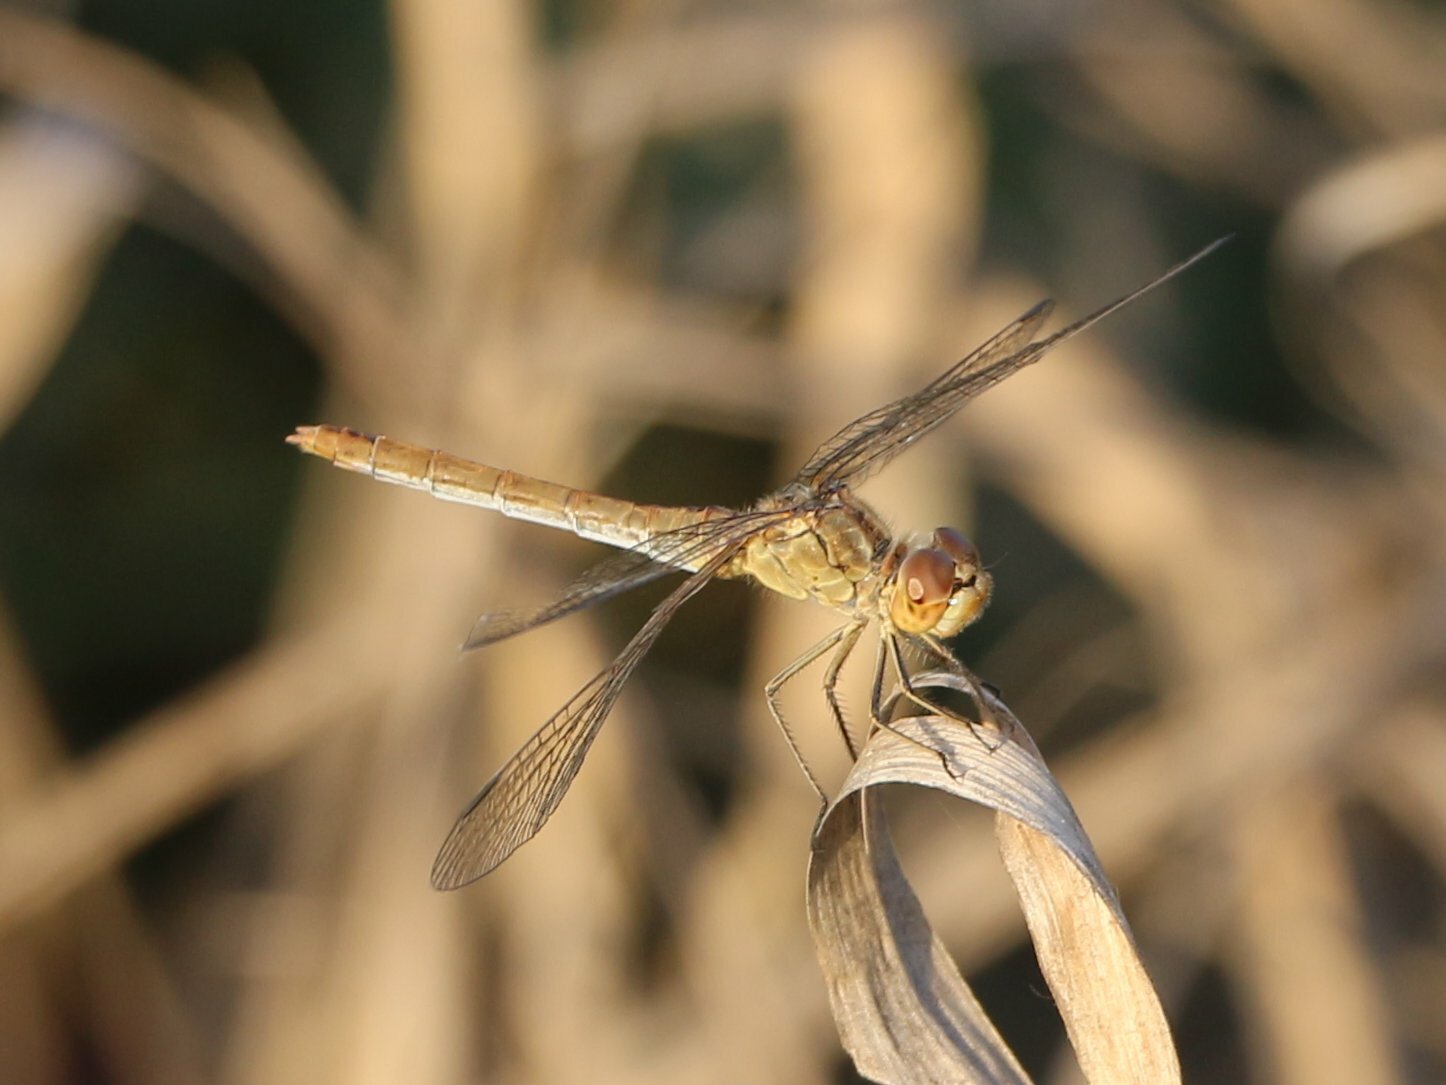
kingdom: Animalia
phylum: Arthropoda
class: Insecta
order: Odonata
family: Libellulidae
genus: Sympetrum
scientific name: Sympetrum meridionale
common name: Southern darter
